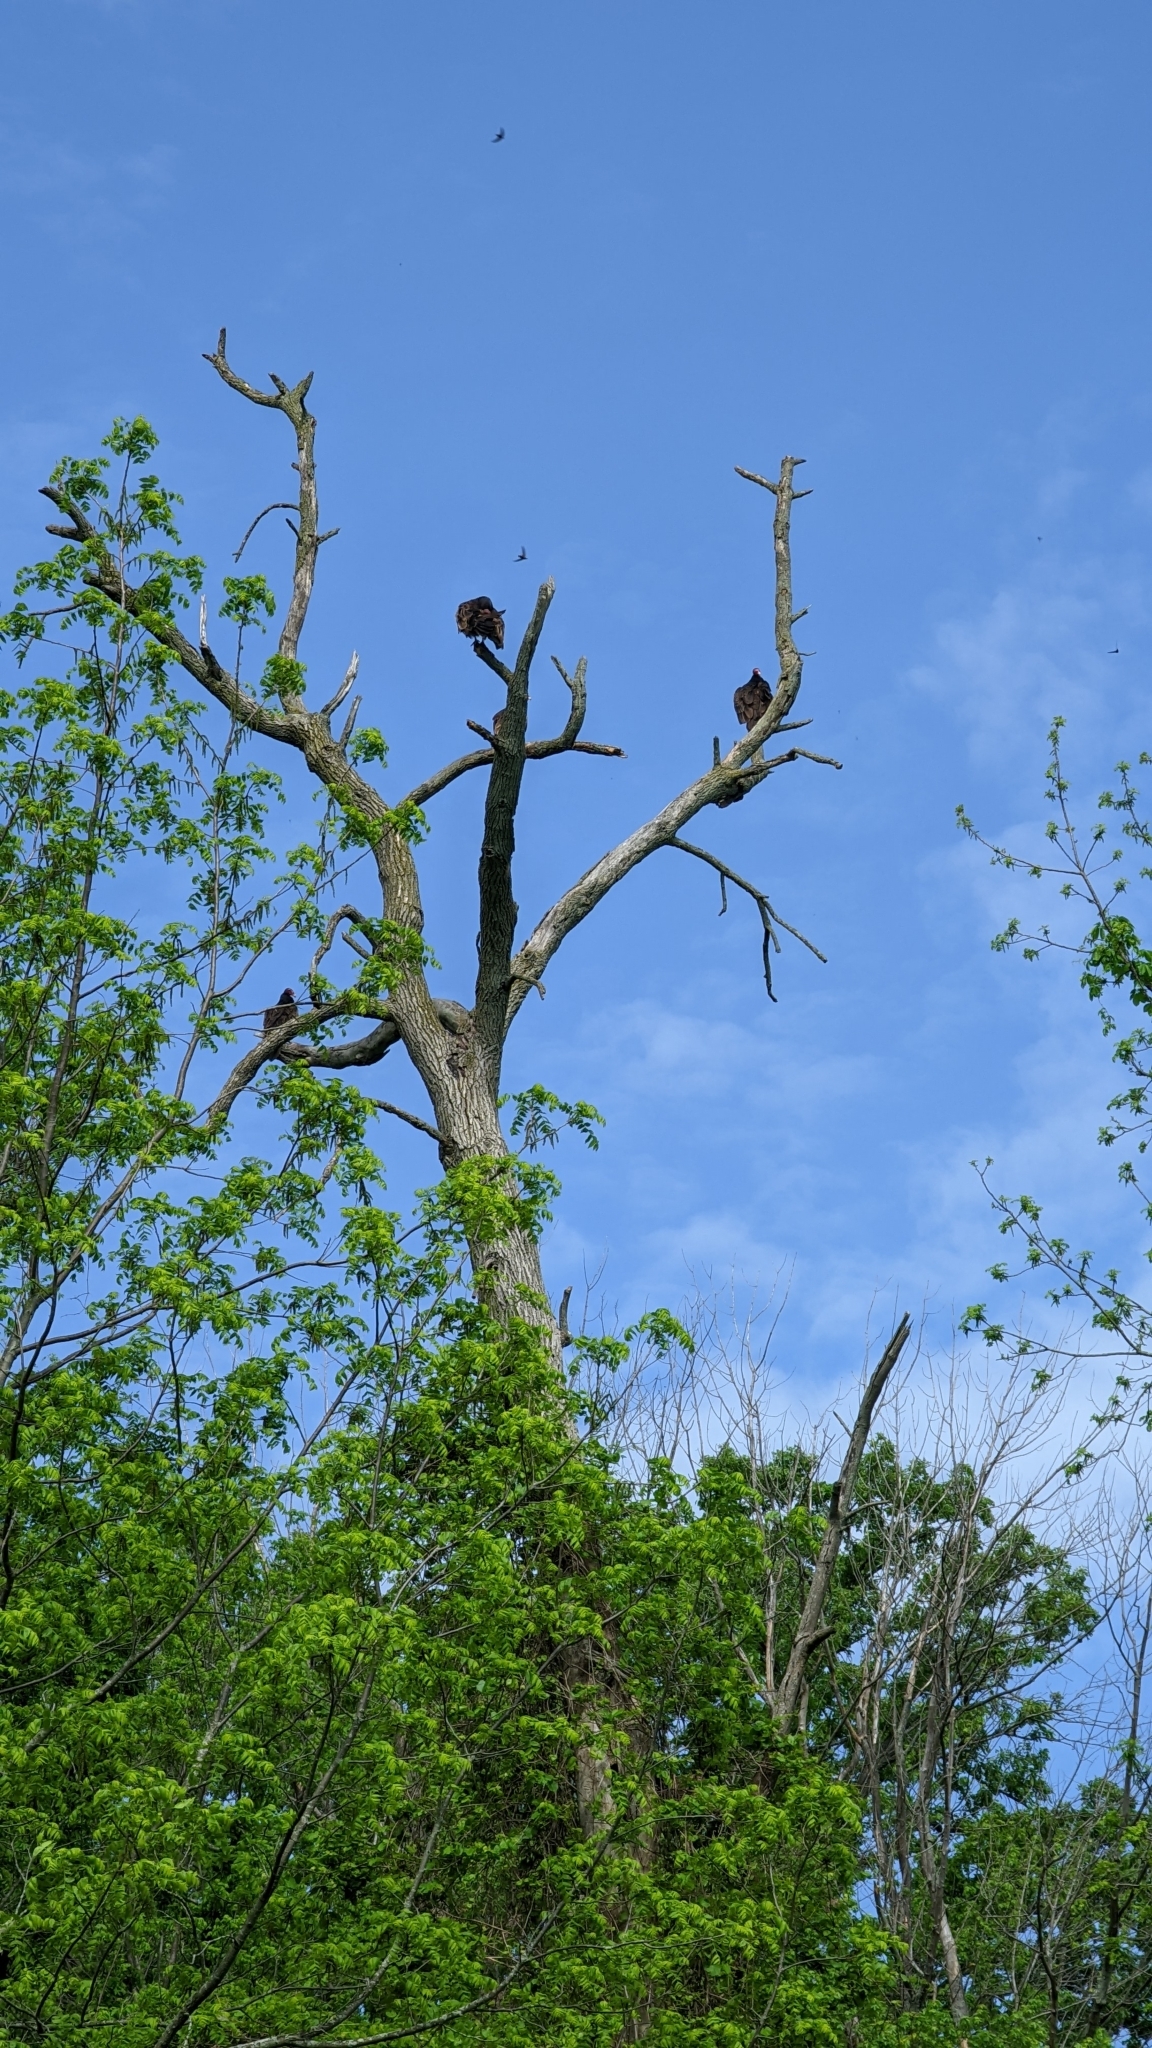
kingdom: Animalia
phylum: Chordata
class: Aves
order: Accipitriformes
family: Cathartidae
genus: Cathartes
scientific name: Cathartes aura
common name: Turkey vulture
